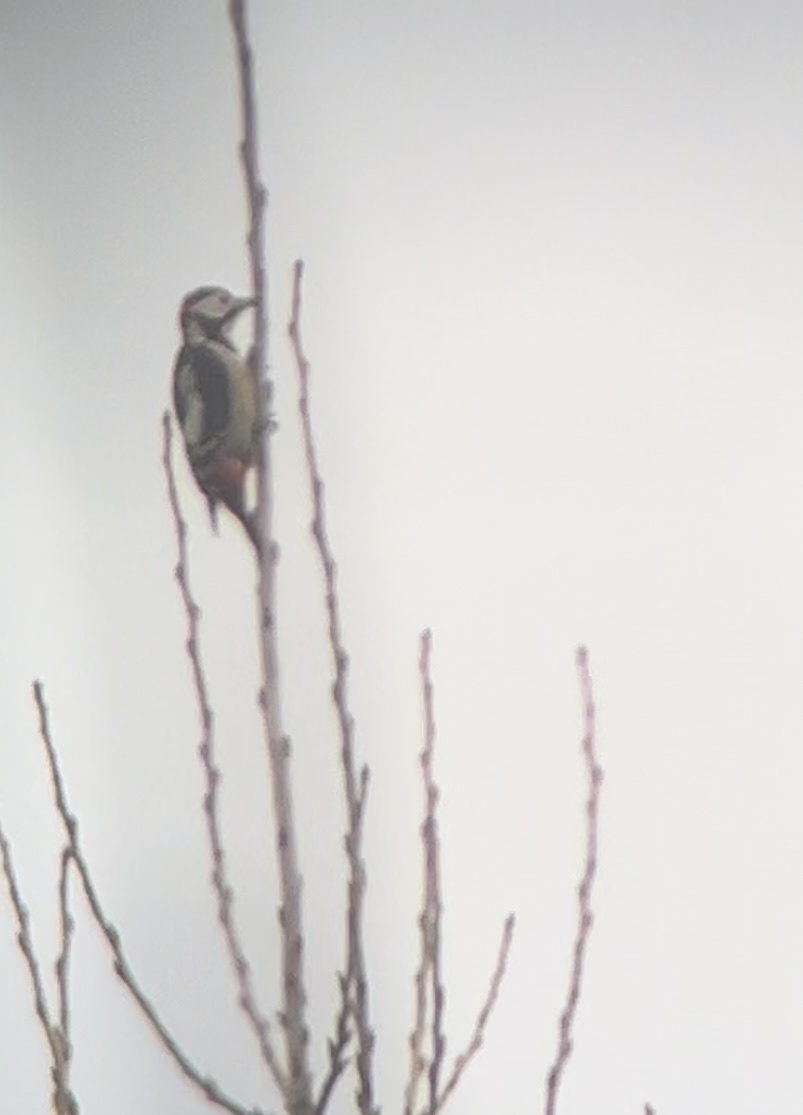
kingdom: Animalia
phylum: Chordata
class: Aves
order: Piciformes
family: Picidae
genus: Dendrocopos
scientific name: Dendrocopos major
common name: Great spotted woodpecker
